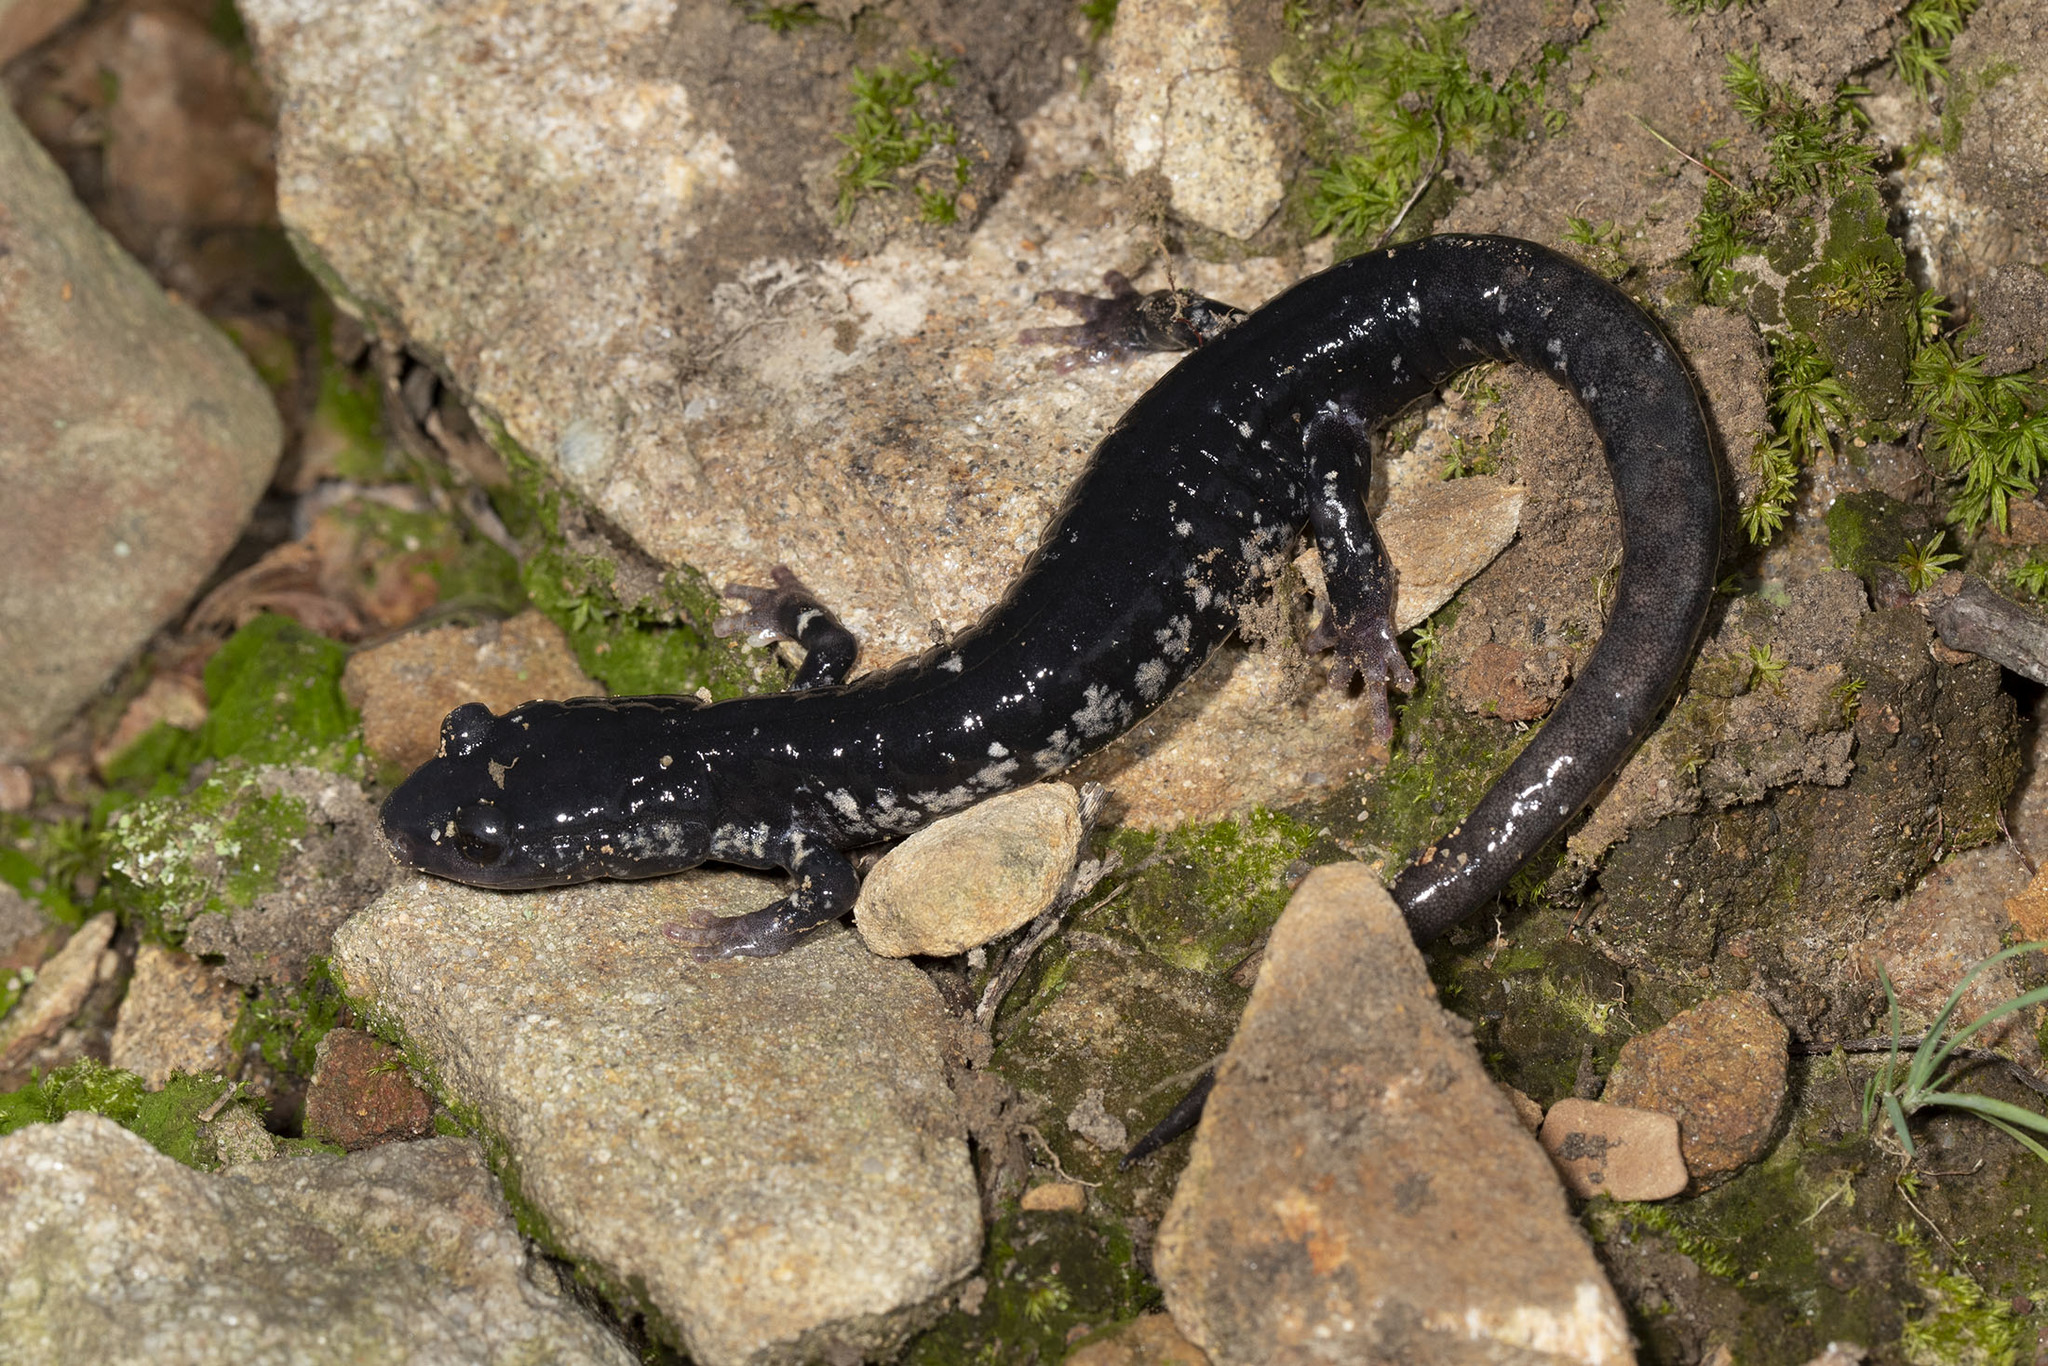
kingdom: Animalia
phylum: Chordata
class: Amphibia
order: Caudata
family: Plethodontidae
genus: Plethodon
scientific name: Plethodon glutinosus
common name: Northern slimy salamander
